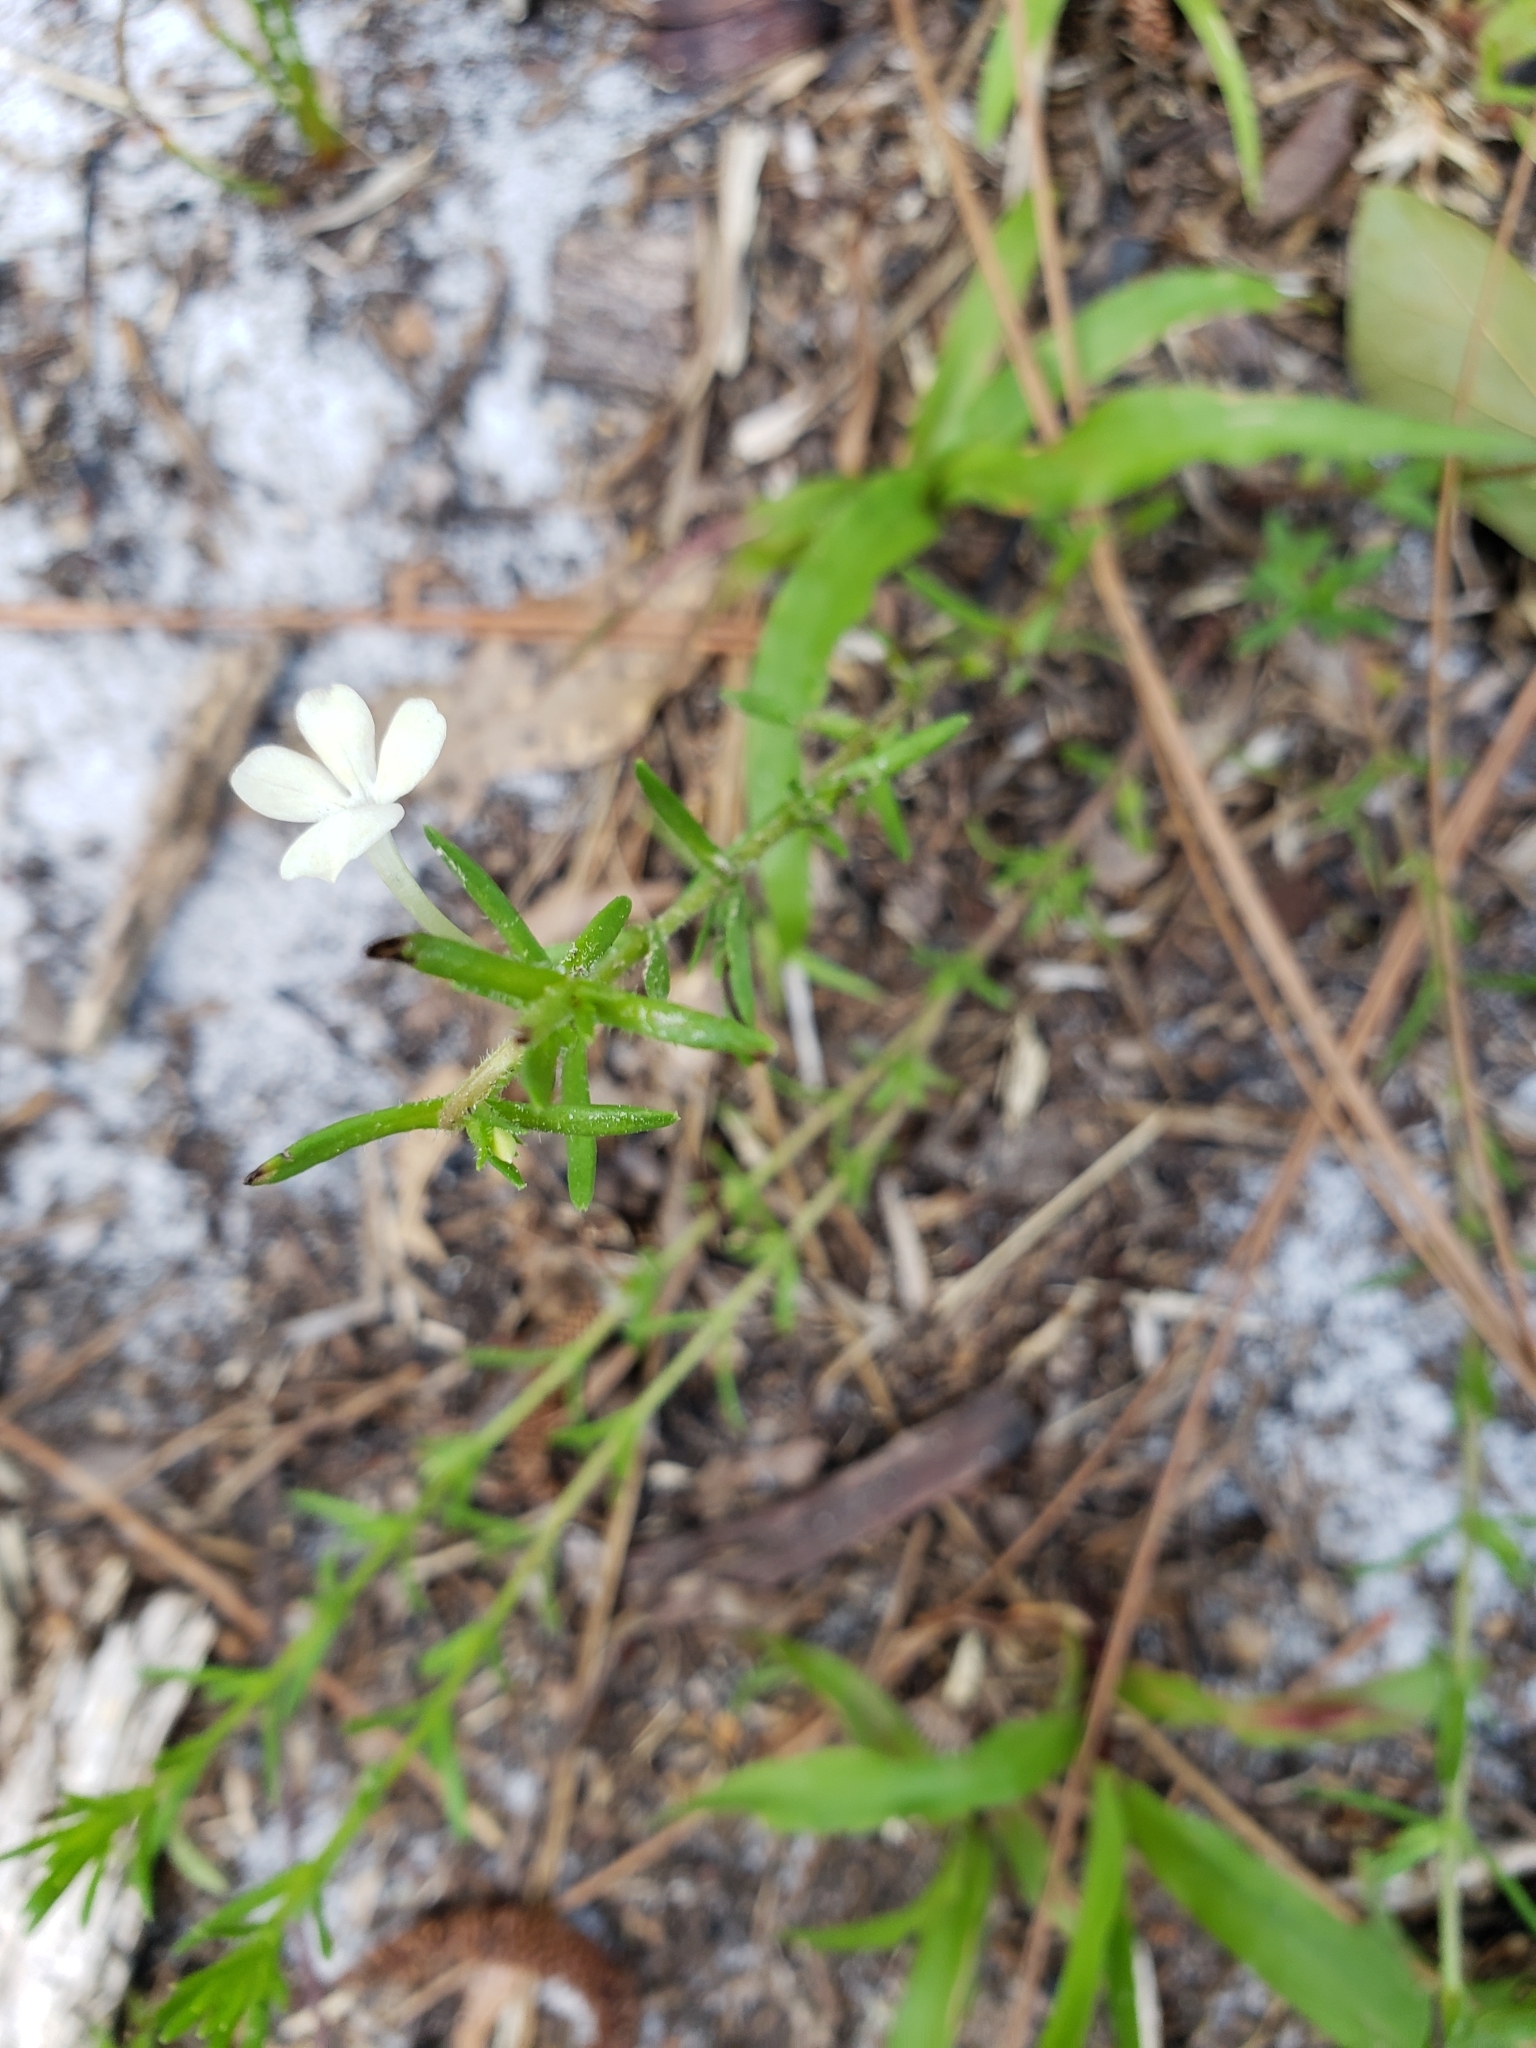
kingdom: Plantae
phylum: Tracheophyta
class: Magnoliopsida
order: Lamiales
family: Plantaginaceae
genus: Gratiola
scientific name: Gratiola hispida
